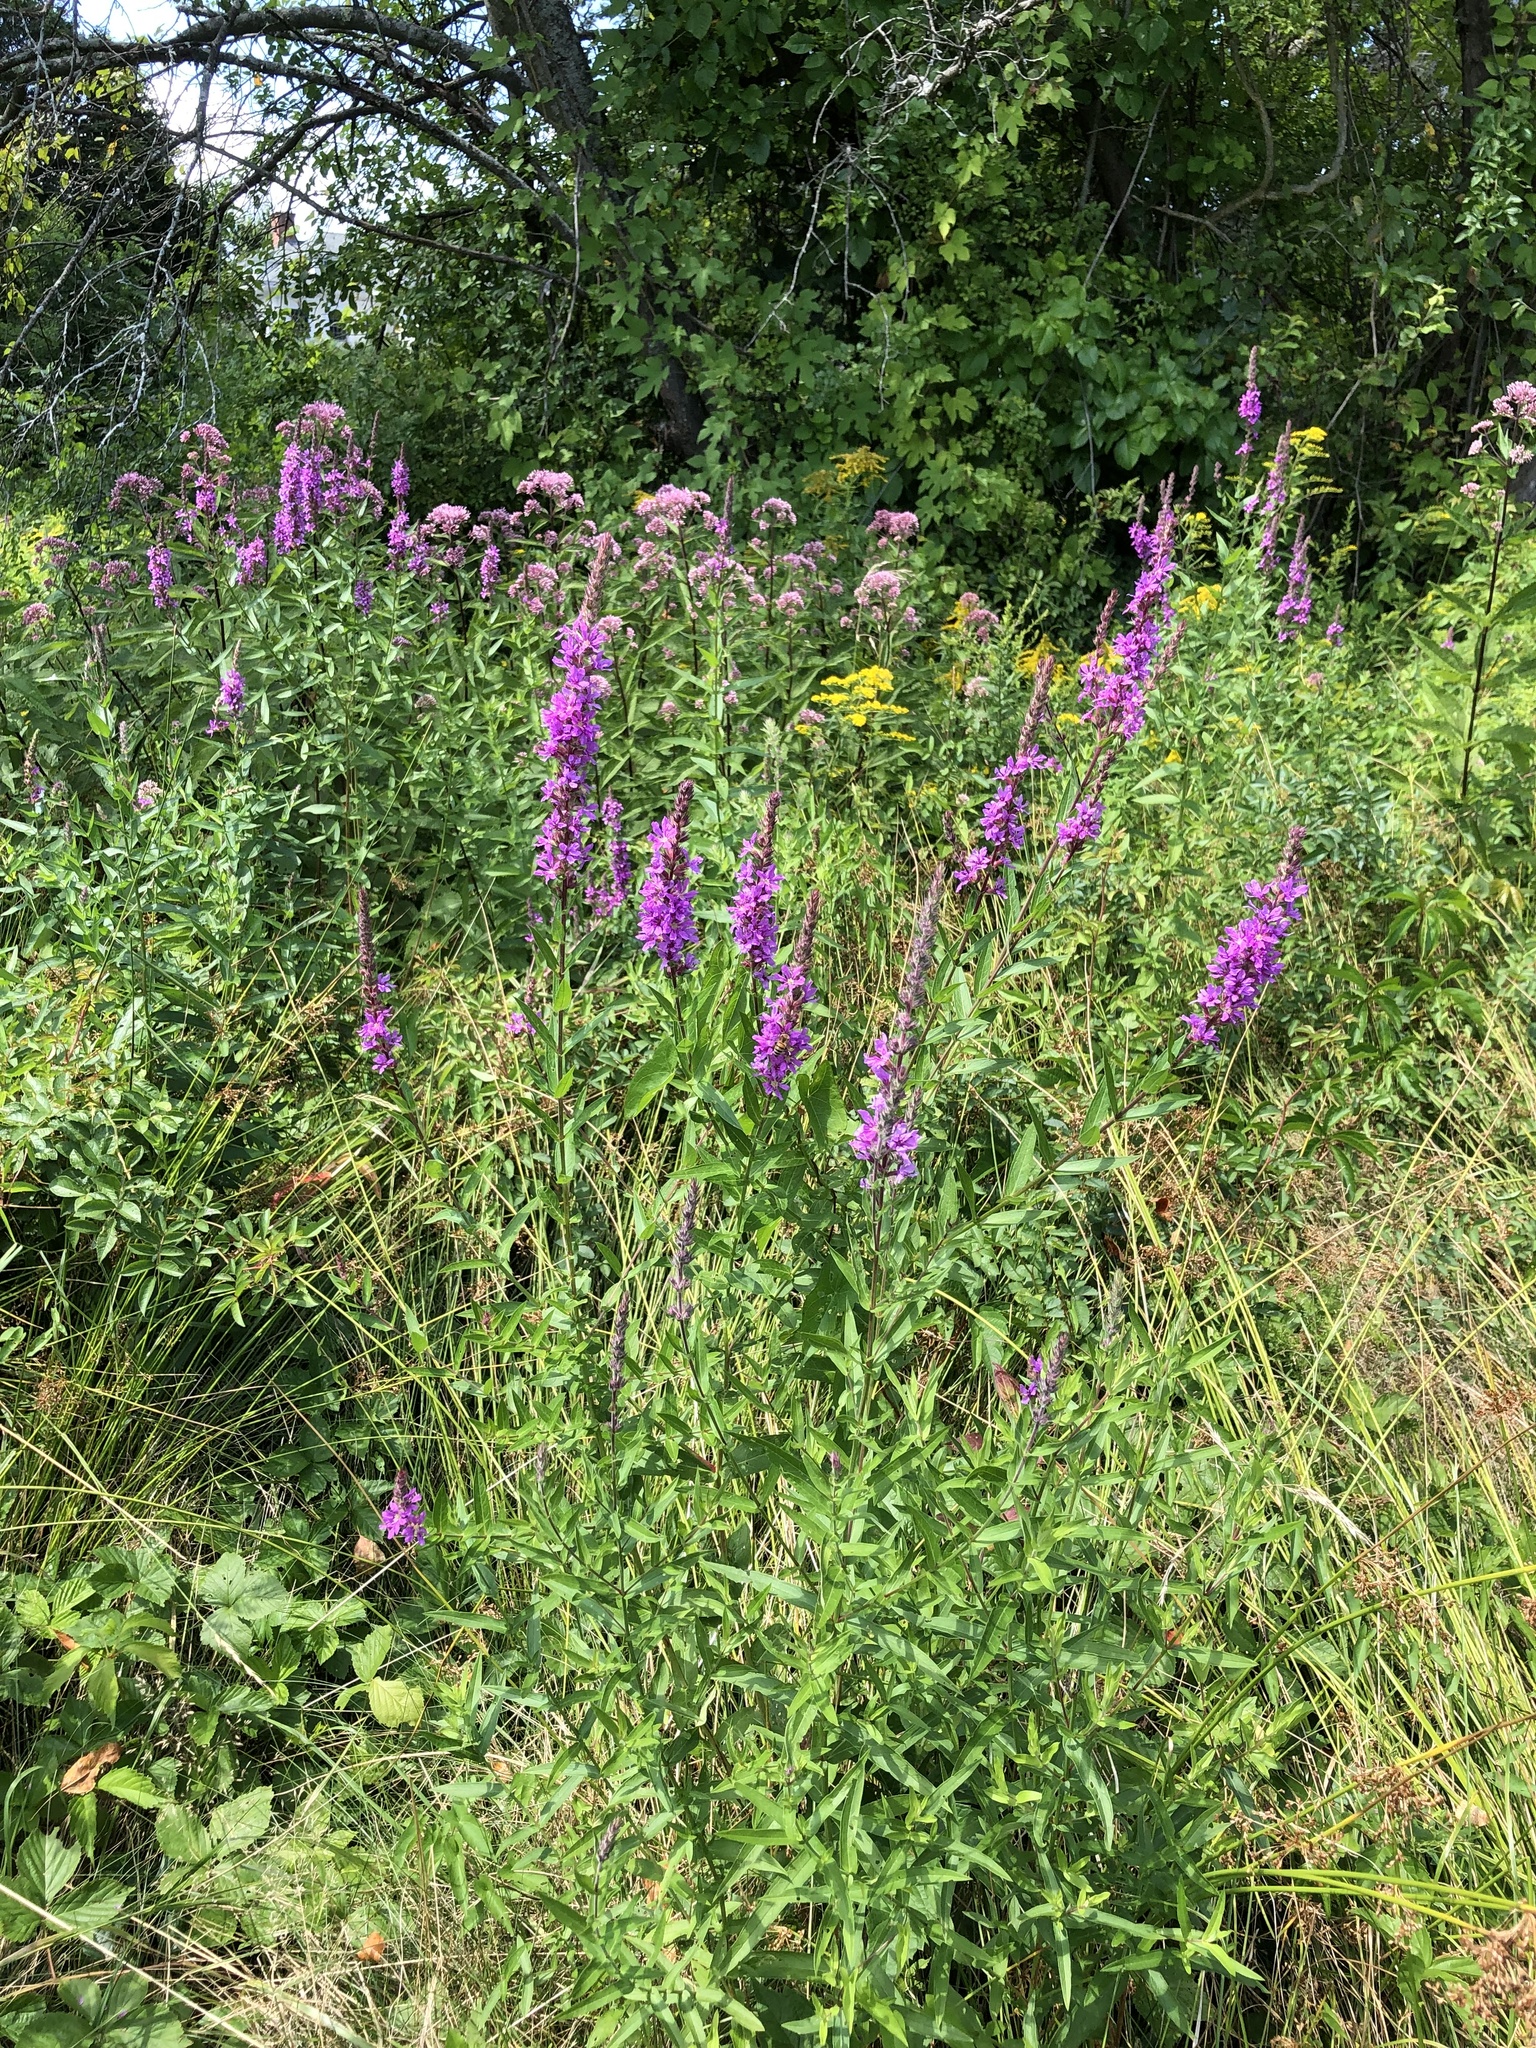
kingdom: Plantae
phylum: Tracheophyta
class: Magnoliopsida
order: Myrtales
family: Lythraceae
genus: Lythrum
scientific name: Lythrum salicaria
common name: Purple loosestrife
